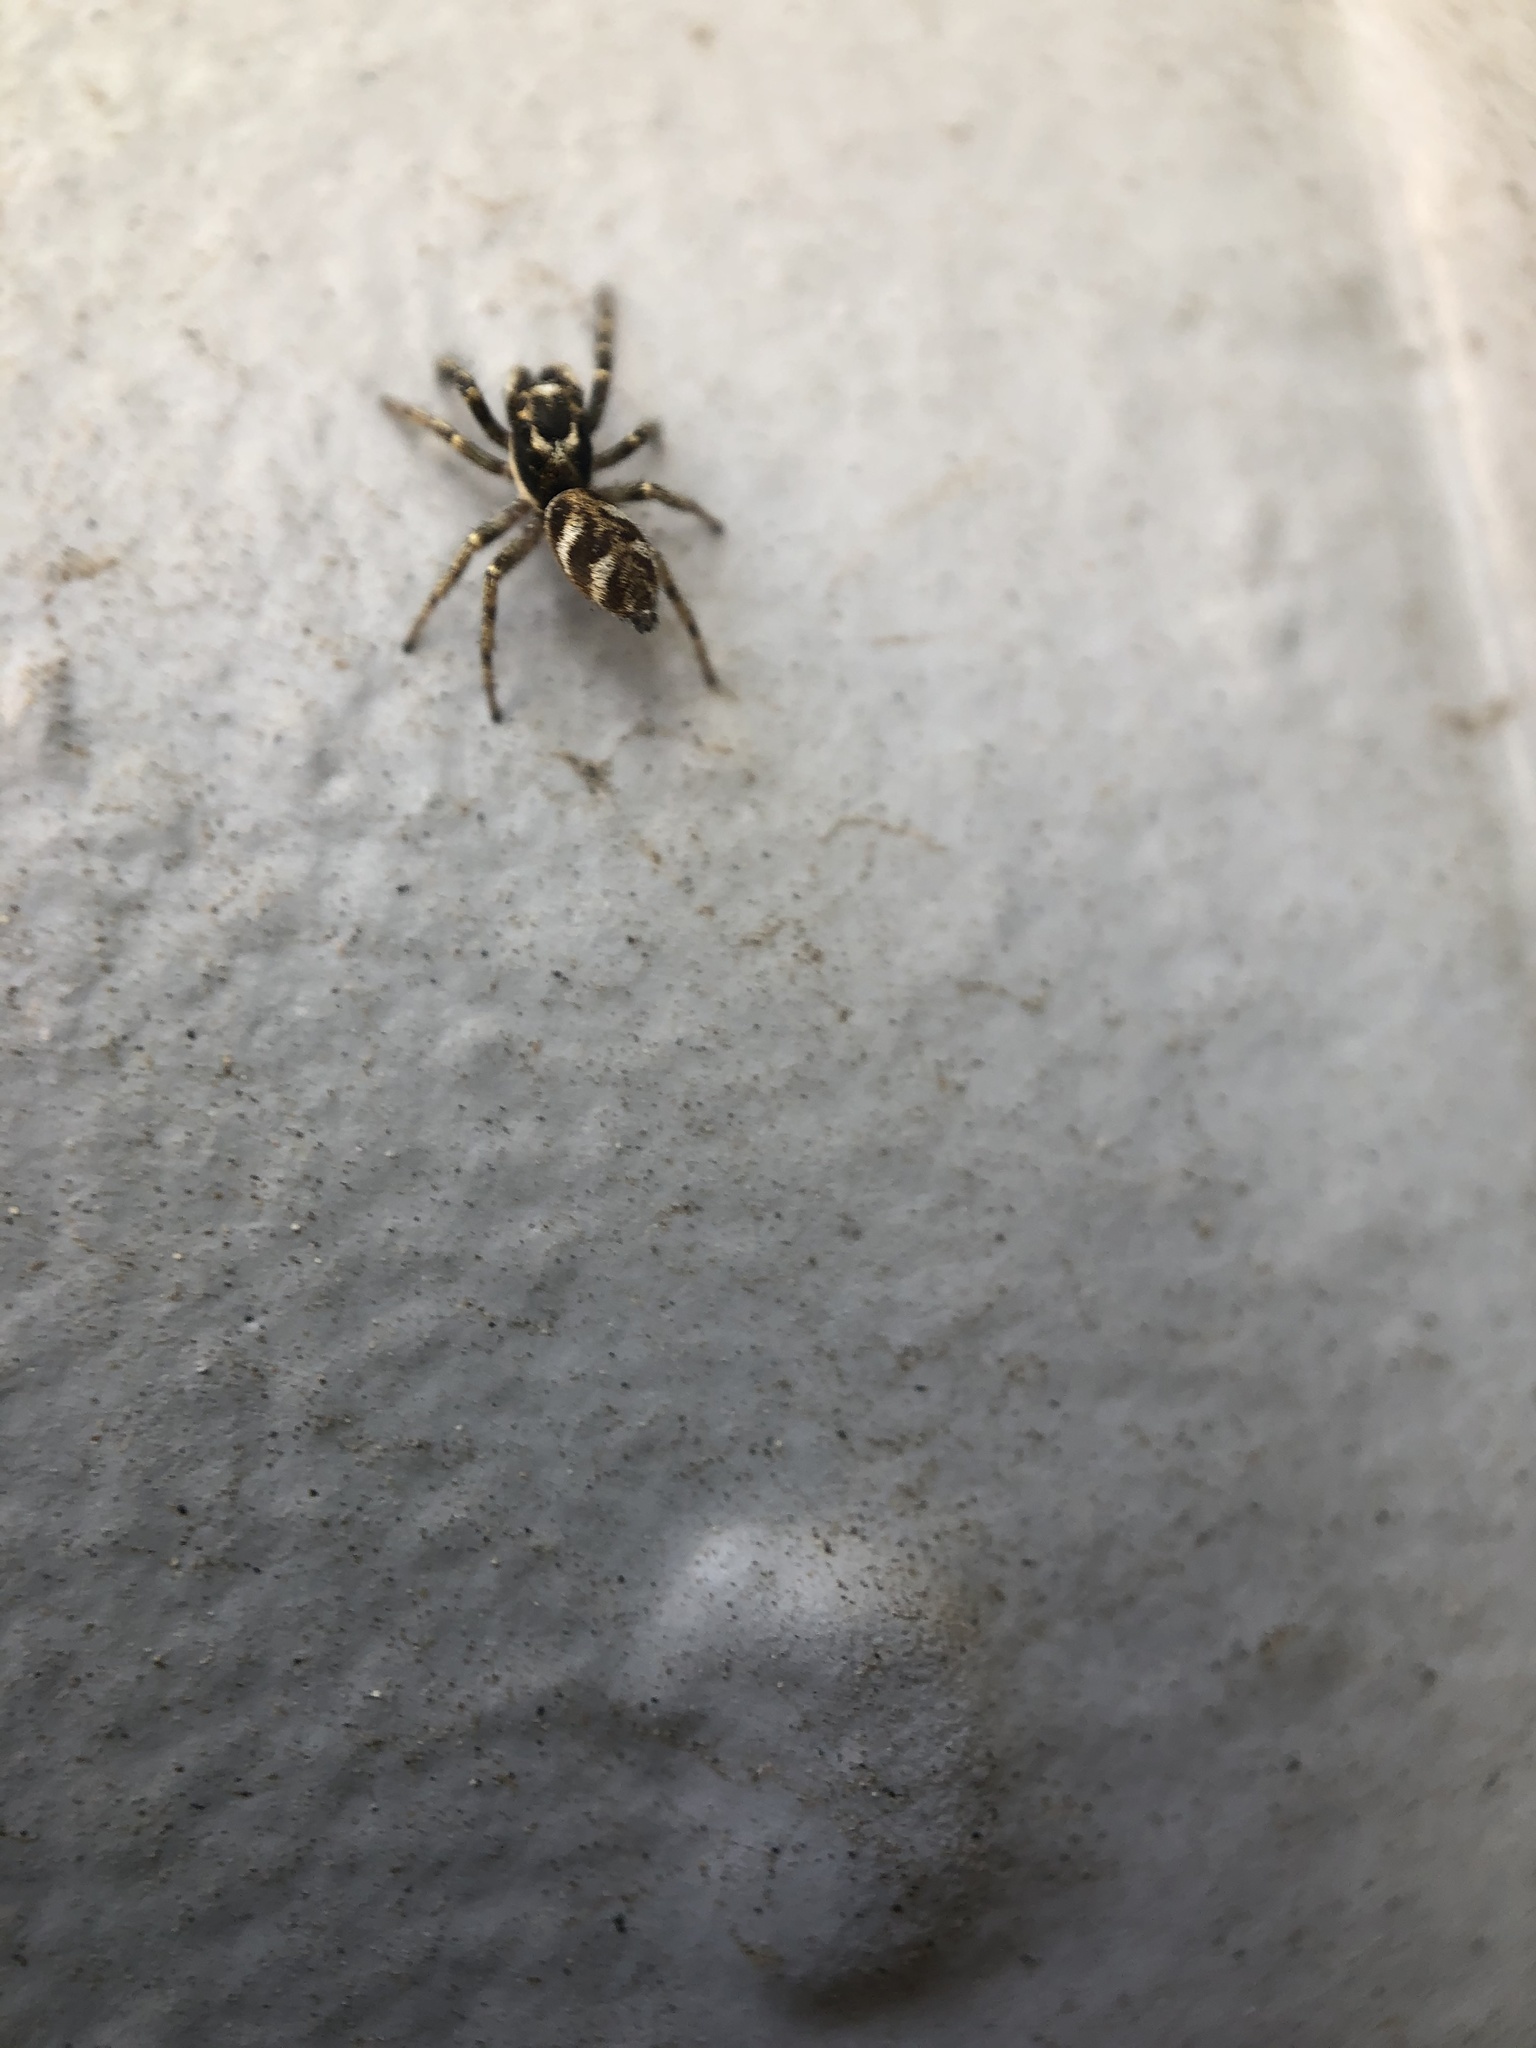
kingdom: Animalia
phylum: Arthropoda
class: Arachnida
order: Araneae
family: Salticidae
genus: Salticus
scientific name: Salticus scenicus
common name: Zebra jumper
